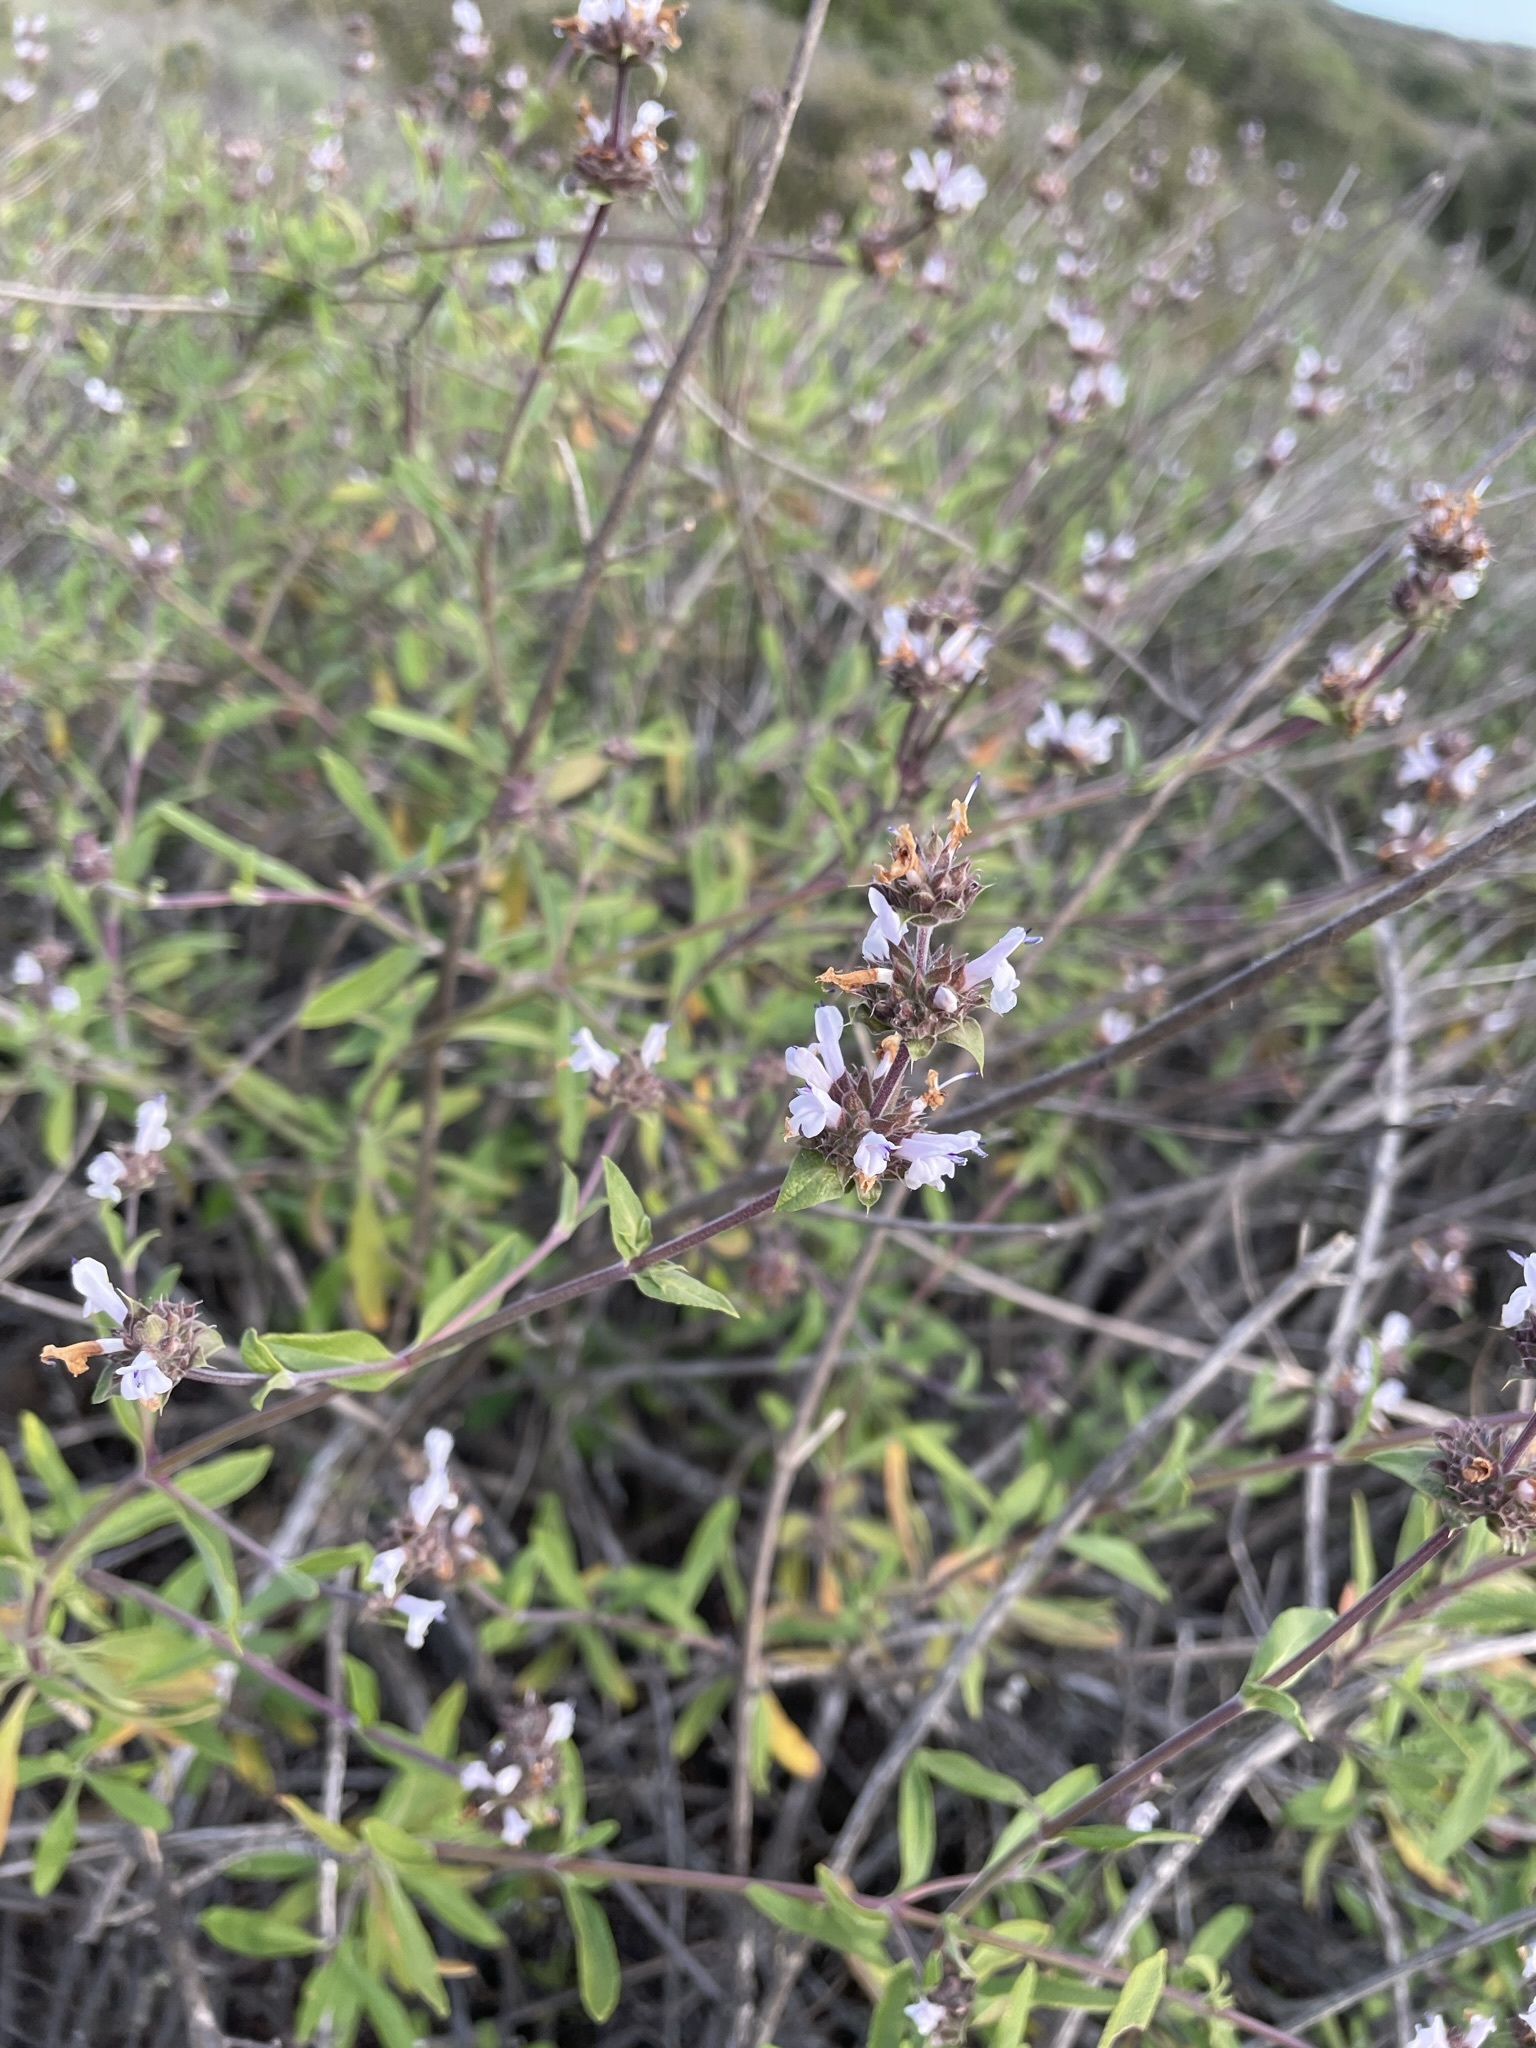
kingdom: Plantae
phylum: Tracheophyta
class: Magnoliopsida
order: Lamiales
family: Lamiaceae
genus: Salvia
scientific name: Salvia mellifera
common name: Black sage
